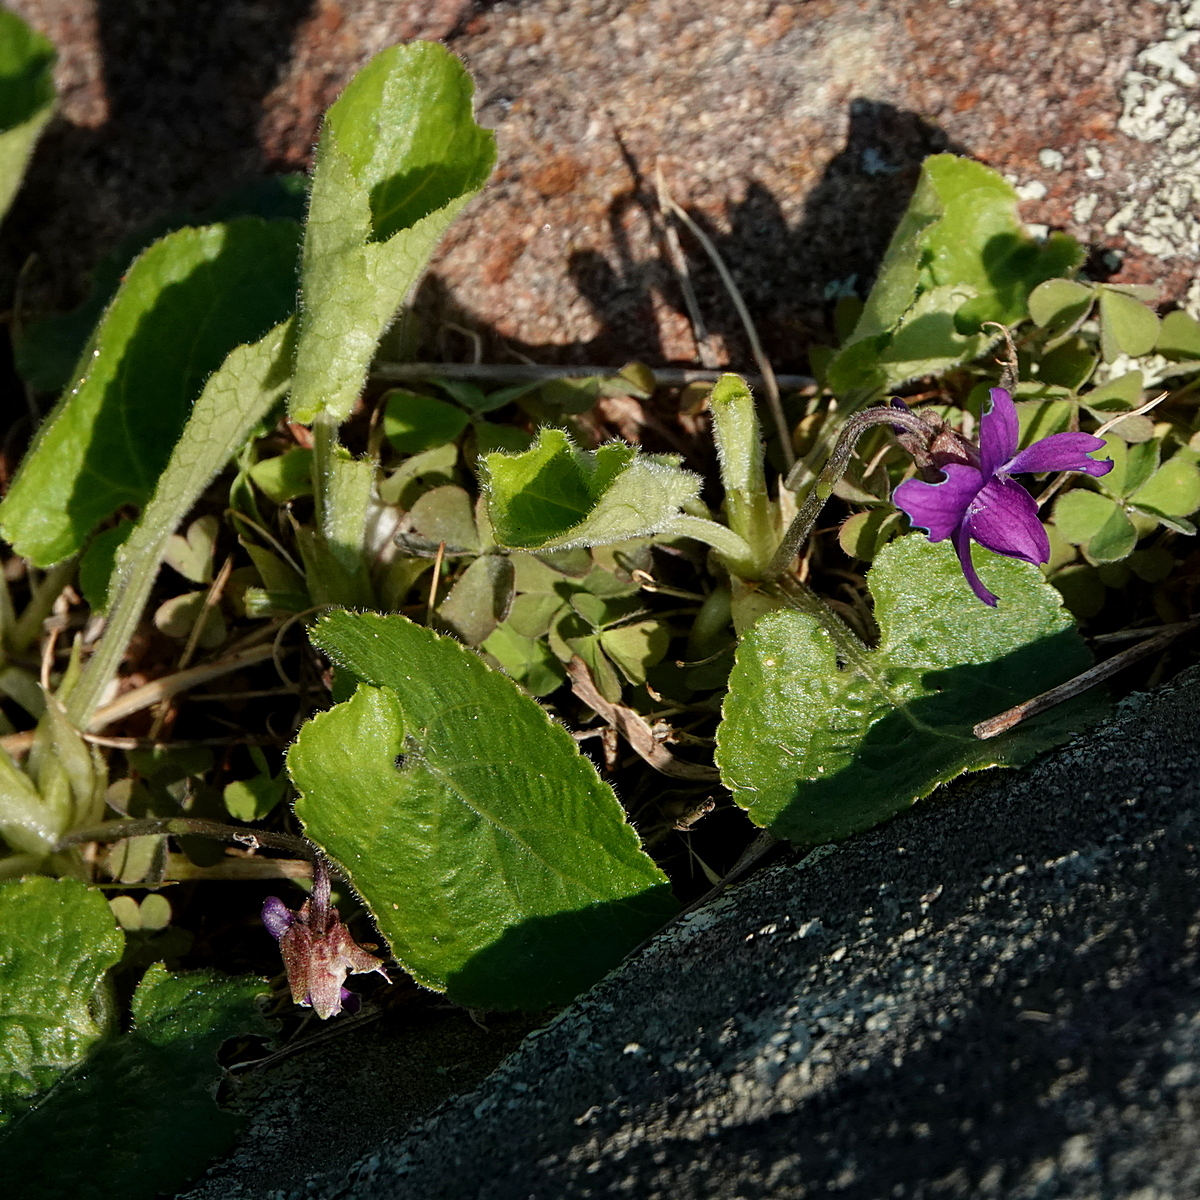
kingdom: Plantae
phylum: Tracheophyta
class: Magnoliopsida
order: Malpighiales
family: Violaceae
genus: Viola
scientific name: Viola odorata
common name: Sweet violet
